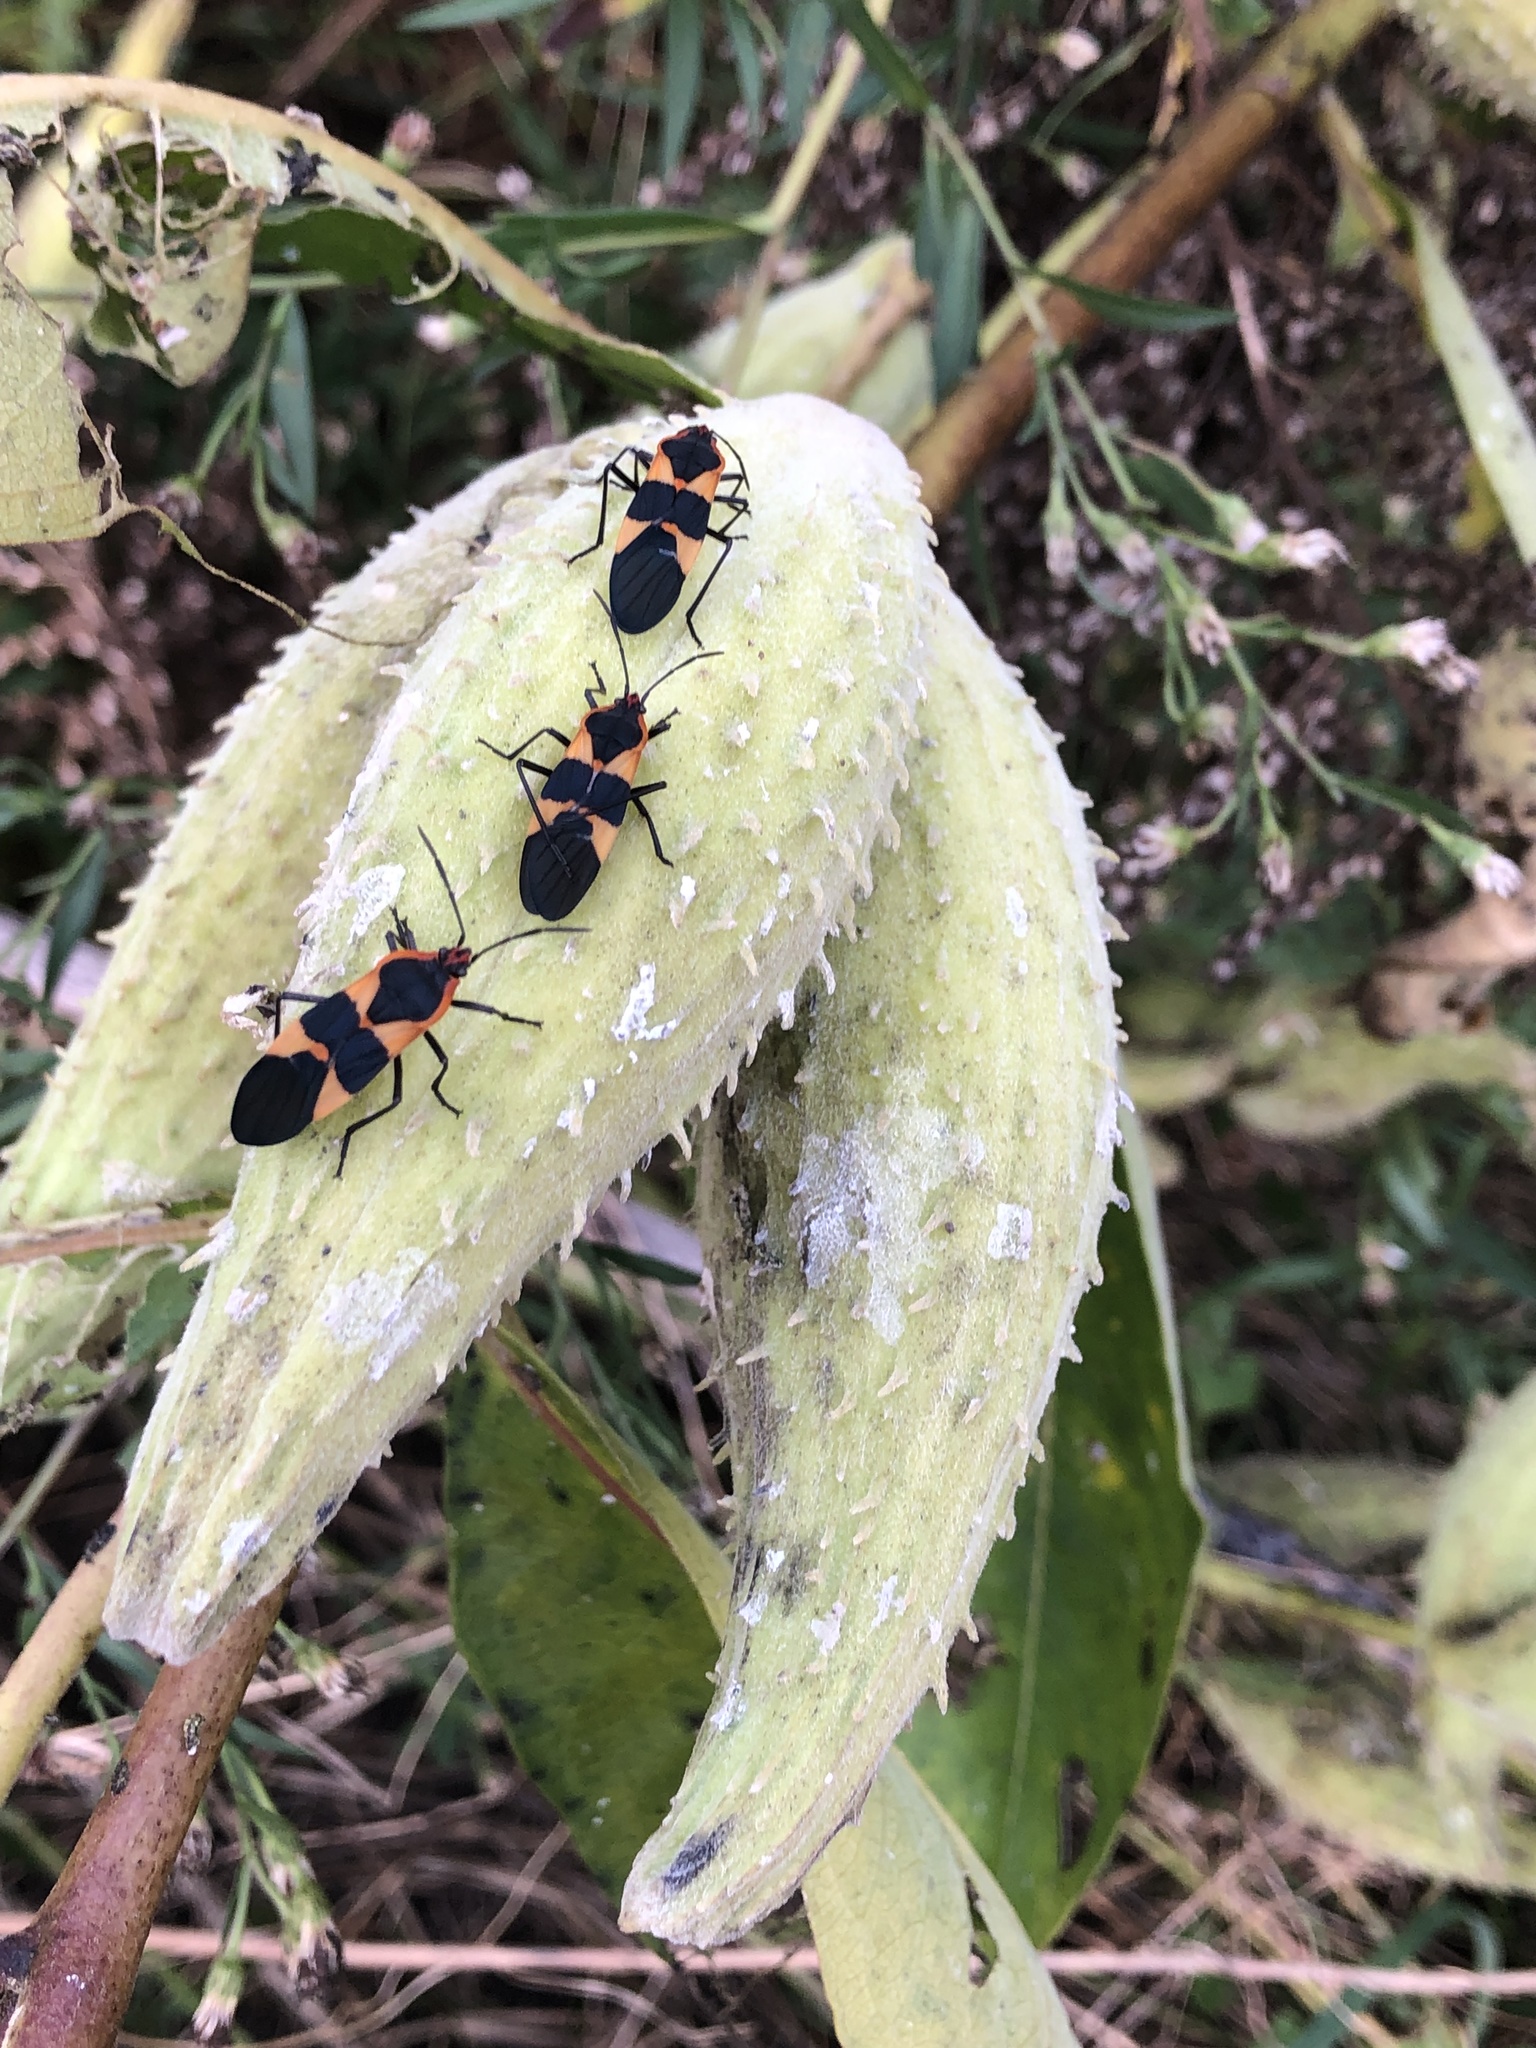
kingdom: Animalia
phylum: Arthropoda
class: Insecta
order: Hemiptera
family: Lygaeidae
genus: Oncopeltus
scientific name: Oncopeltus fasciatus
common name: Large milkweed bug
